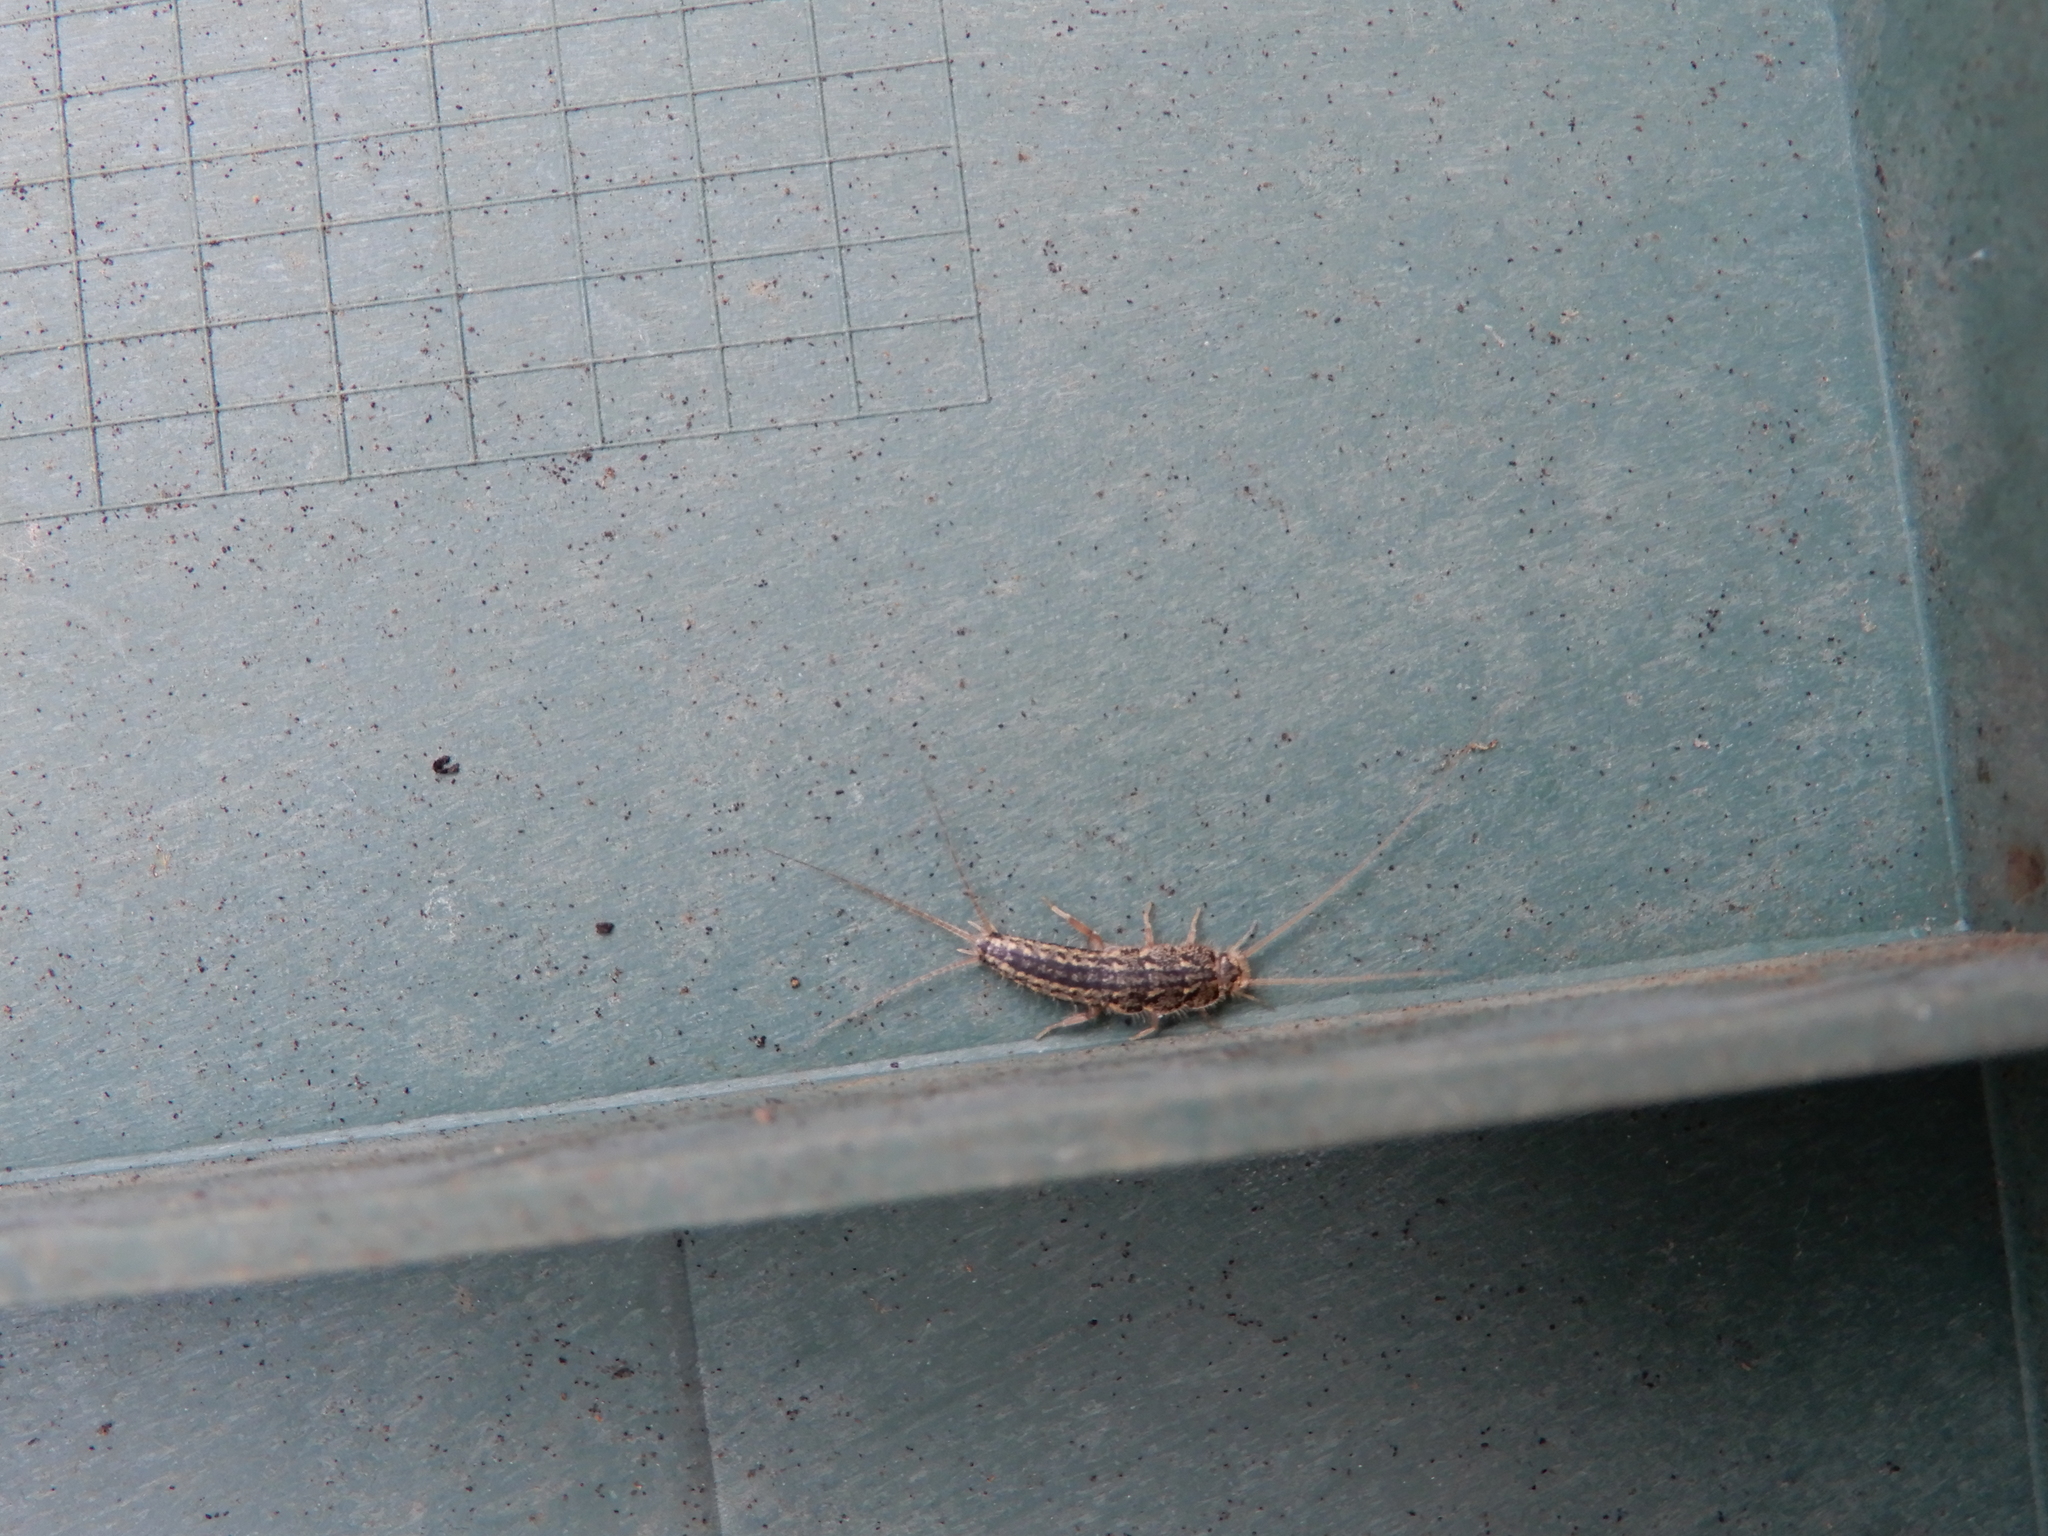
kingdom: Animalia
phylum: Arthropoda
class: Insecta
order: Zygentoma
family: Lepismatidae
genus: Ctenolepisma
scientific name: Ctenolepisma lineata
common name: Four-lined silverfish
